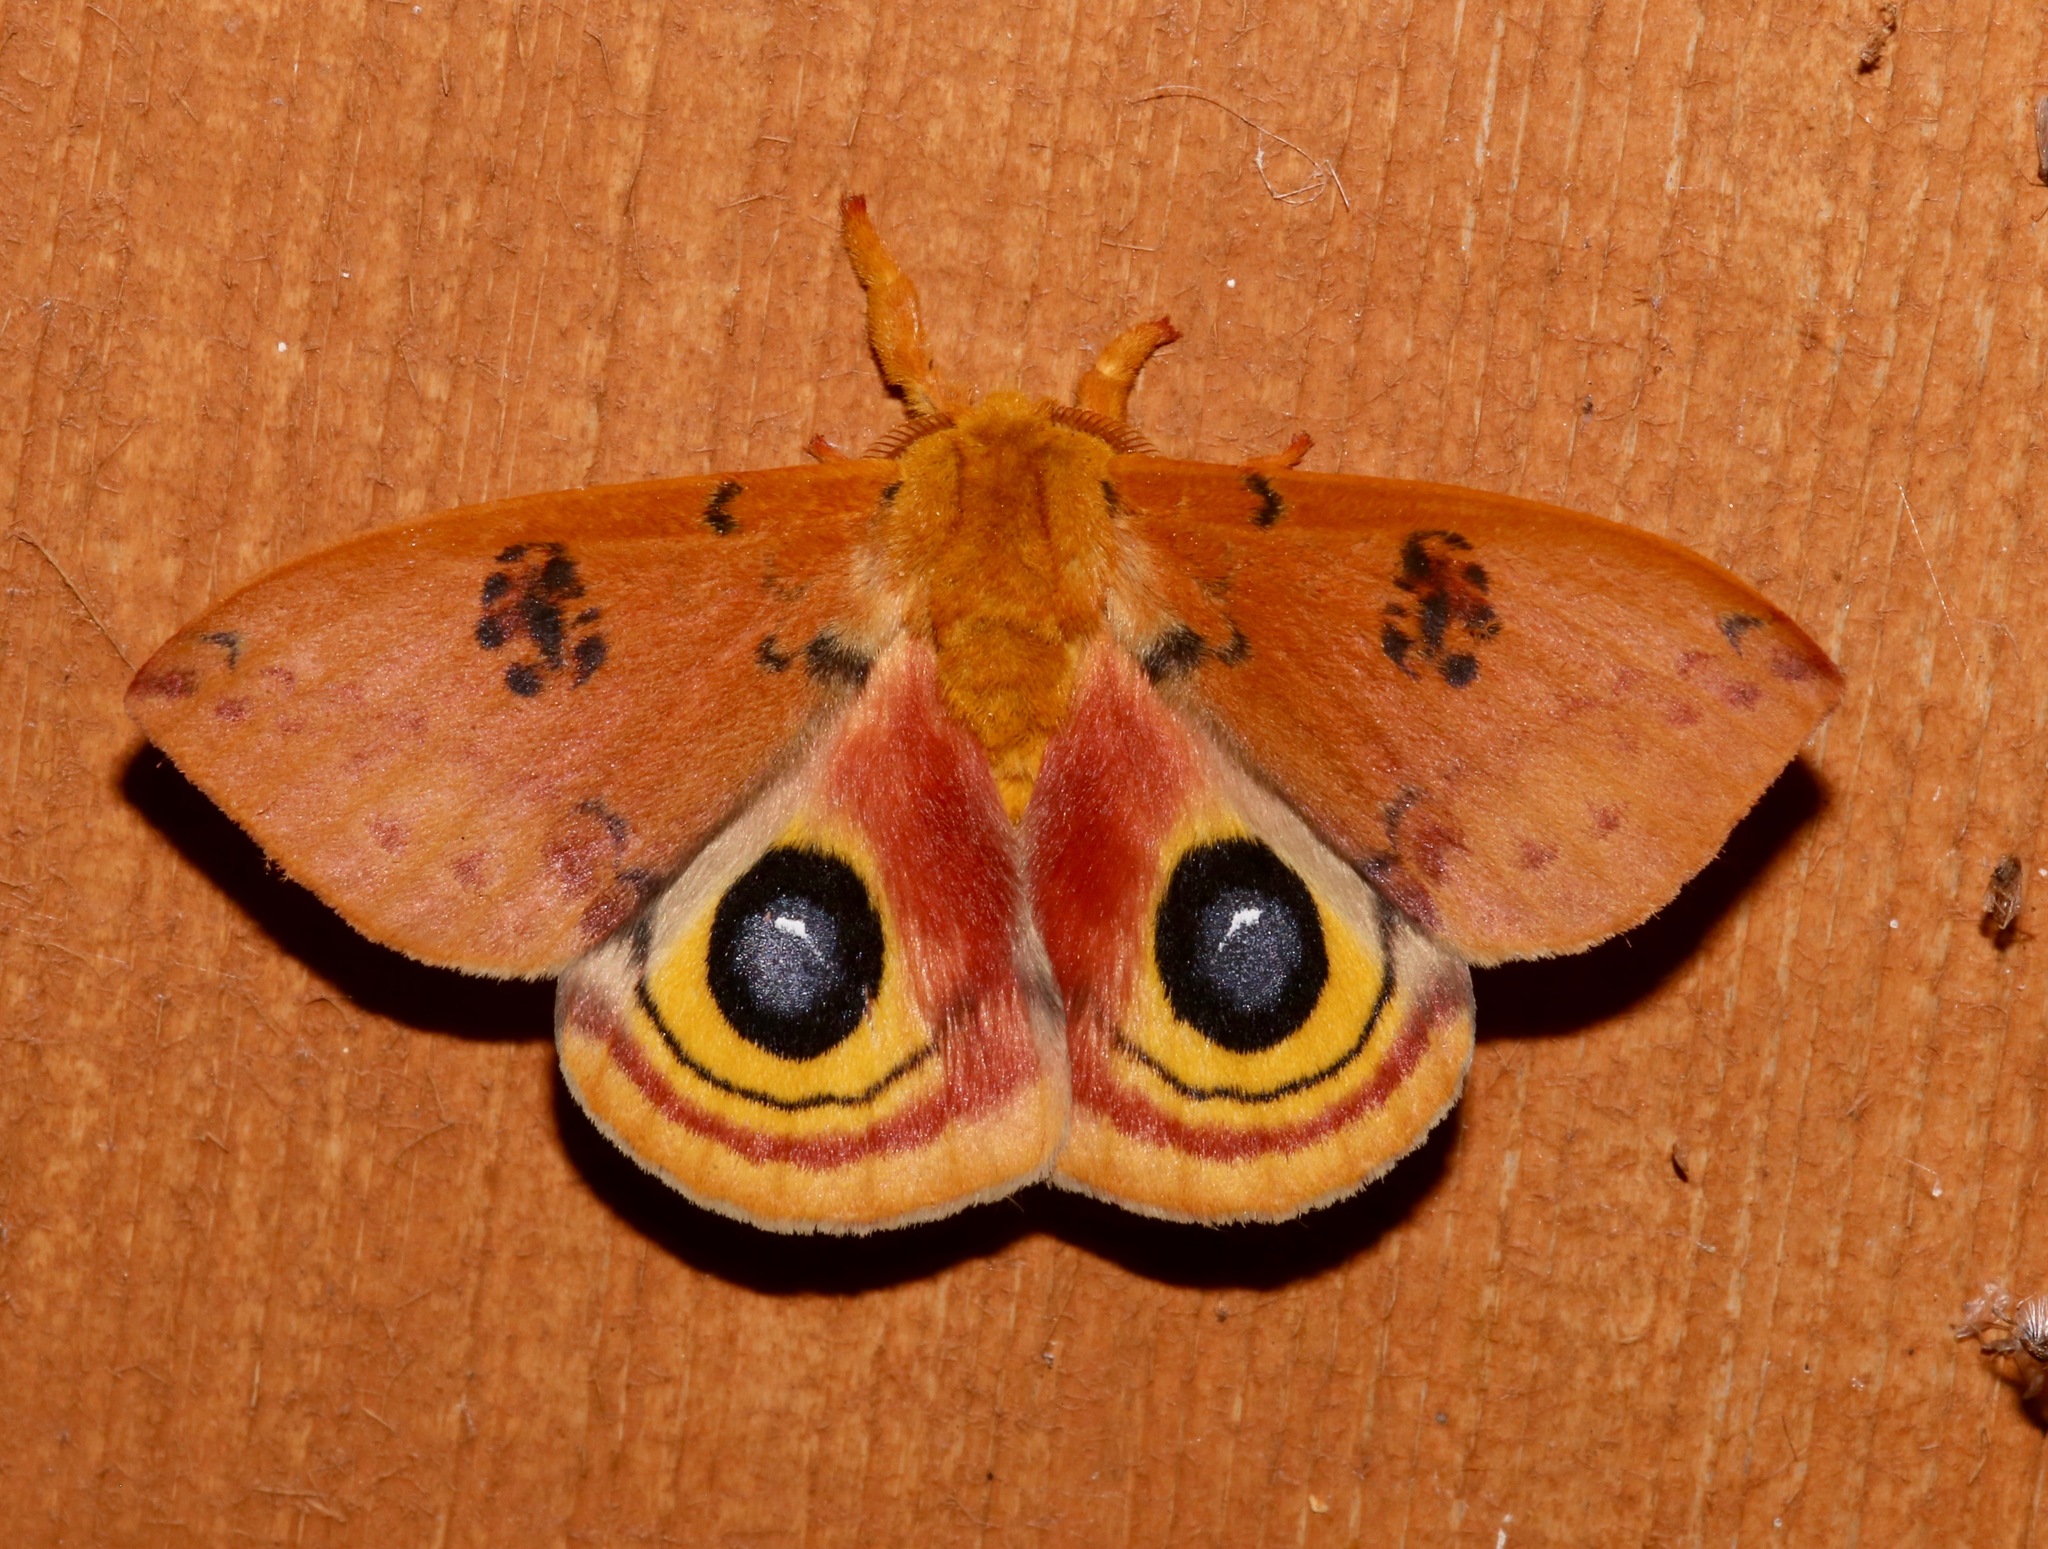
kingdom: Animalia
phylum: Arthropoda
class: Insecta
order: Lepidoptera
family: Saturniidae
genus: Automeris
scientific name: Automeris io
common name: Io moth
